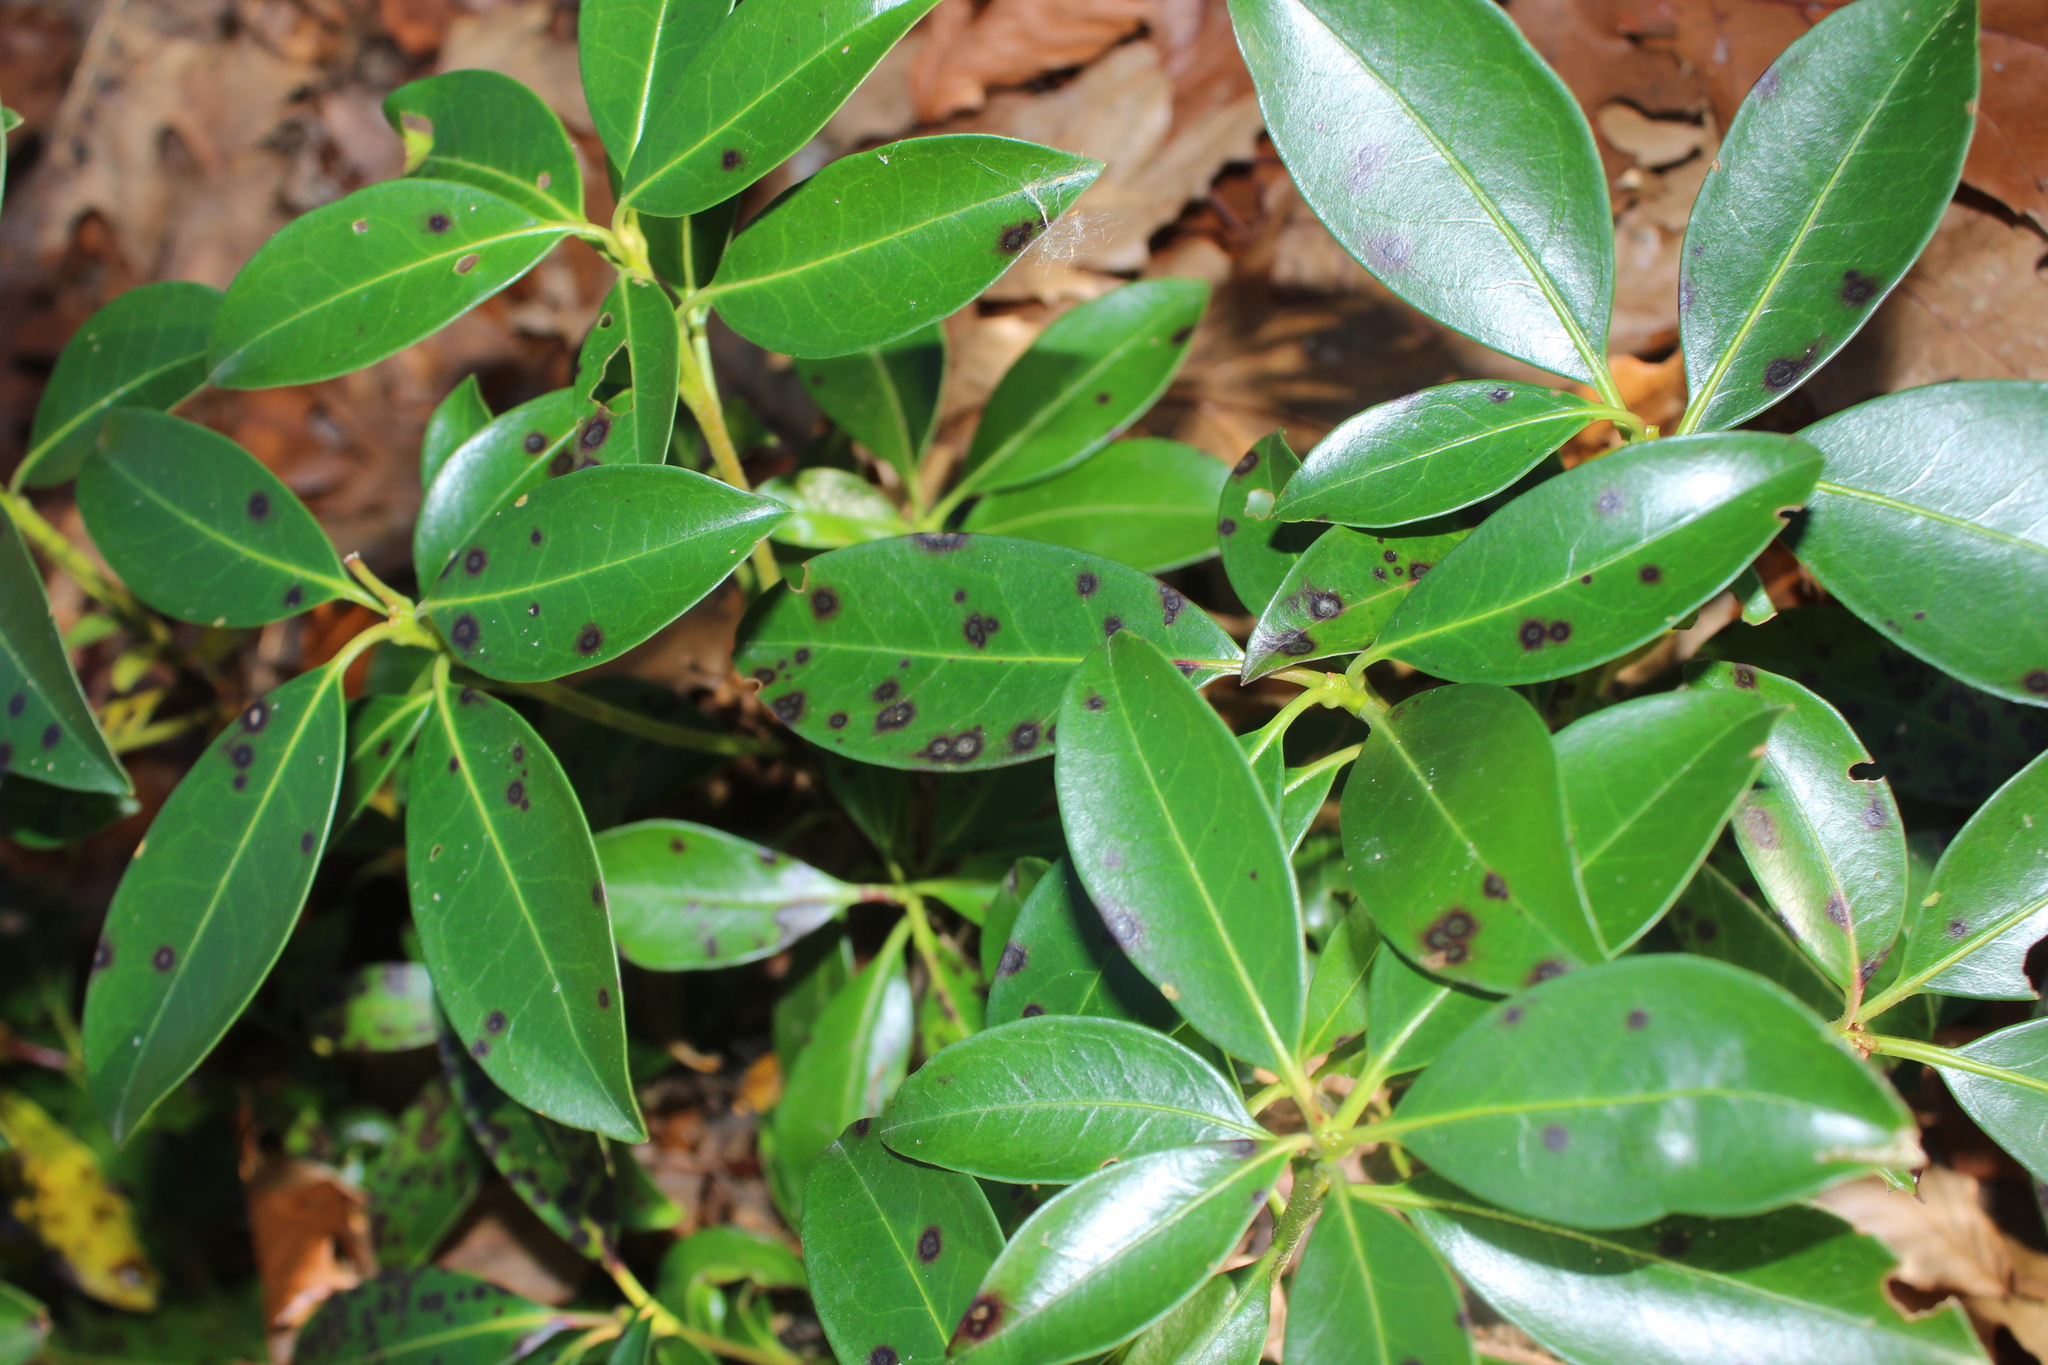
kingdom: Plantae
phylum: Tracheophyta
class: Magnoliopsida
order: Ericales
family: Ericaceae
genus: Kalmia
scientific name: Kalmia latifolia
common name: Mountain-laurel
